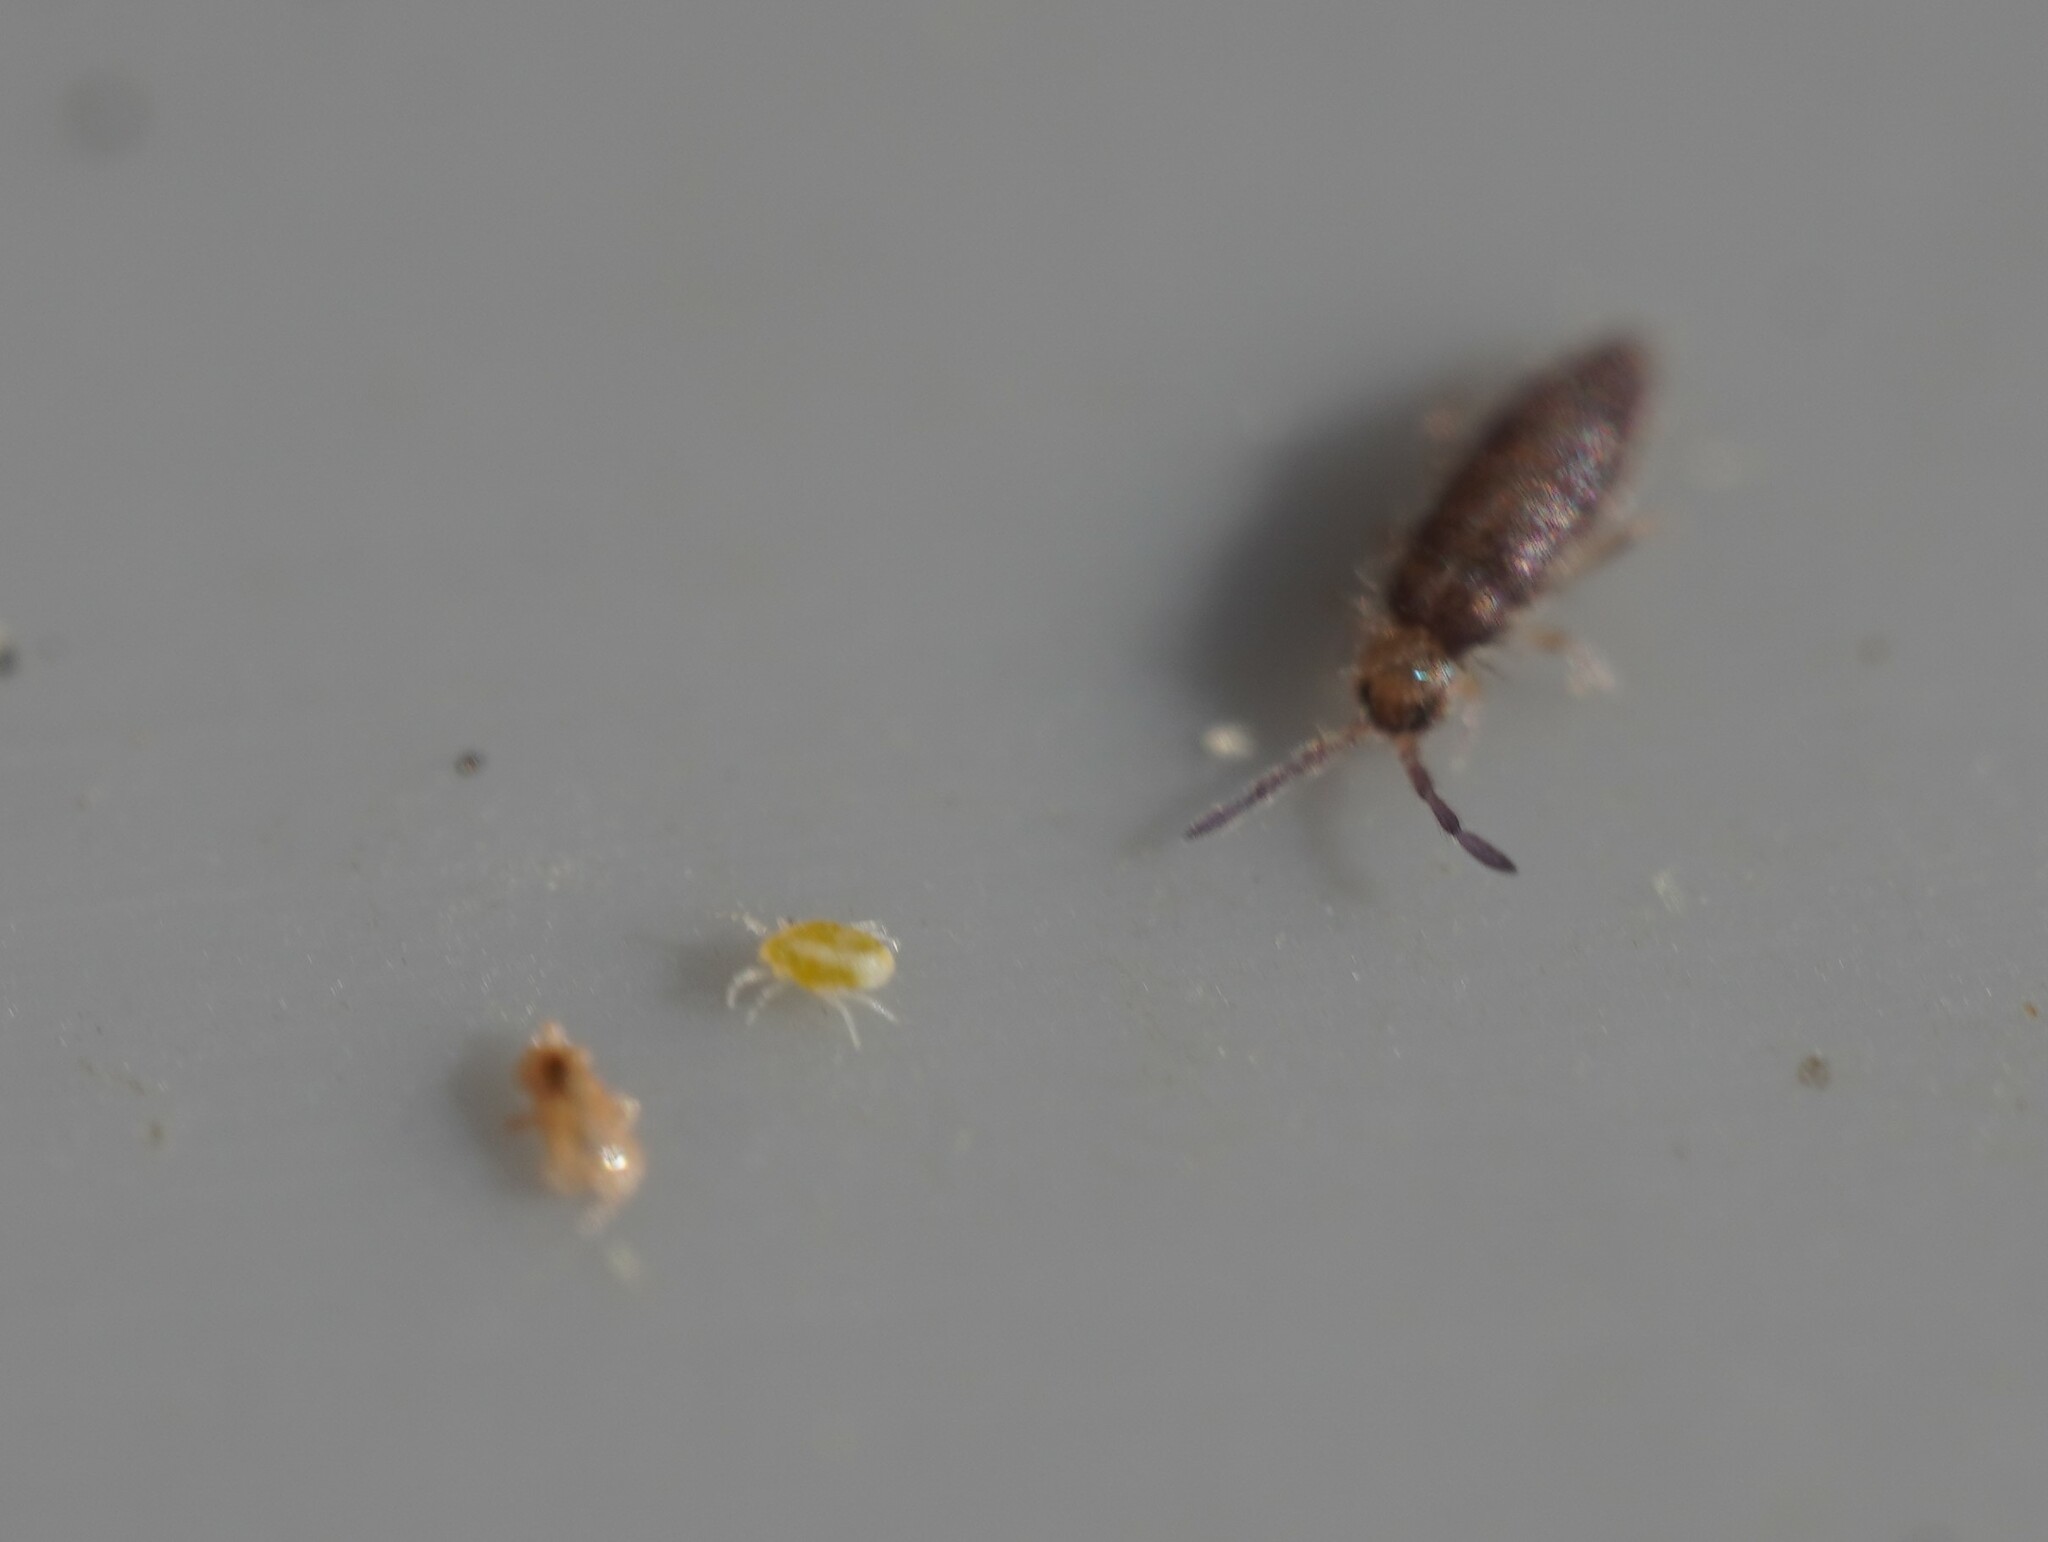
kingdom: Animalia
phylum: Arthropoda
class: Collembola
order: Entomobryomorpha
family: Entomobryidae
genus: Willowsia
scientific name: Willowsia buski
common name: Damp grain springtail
